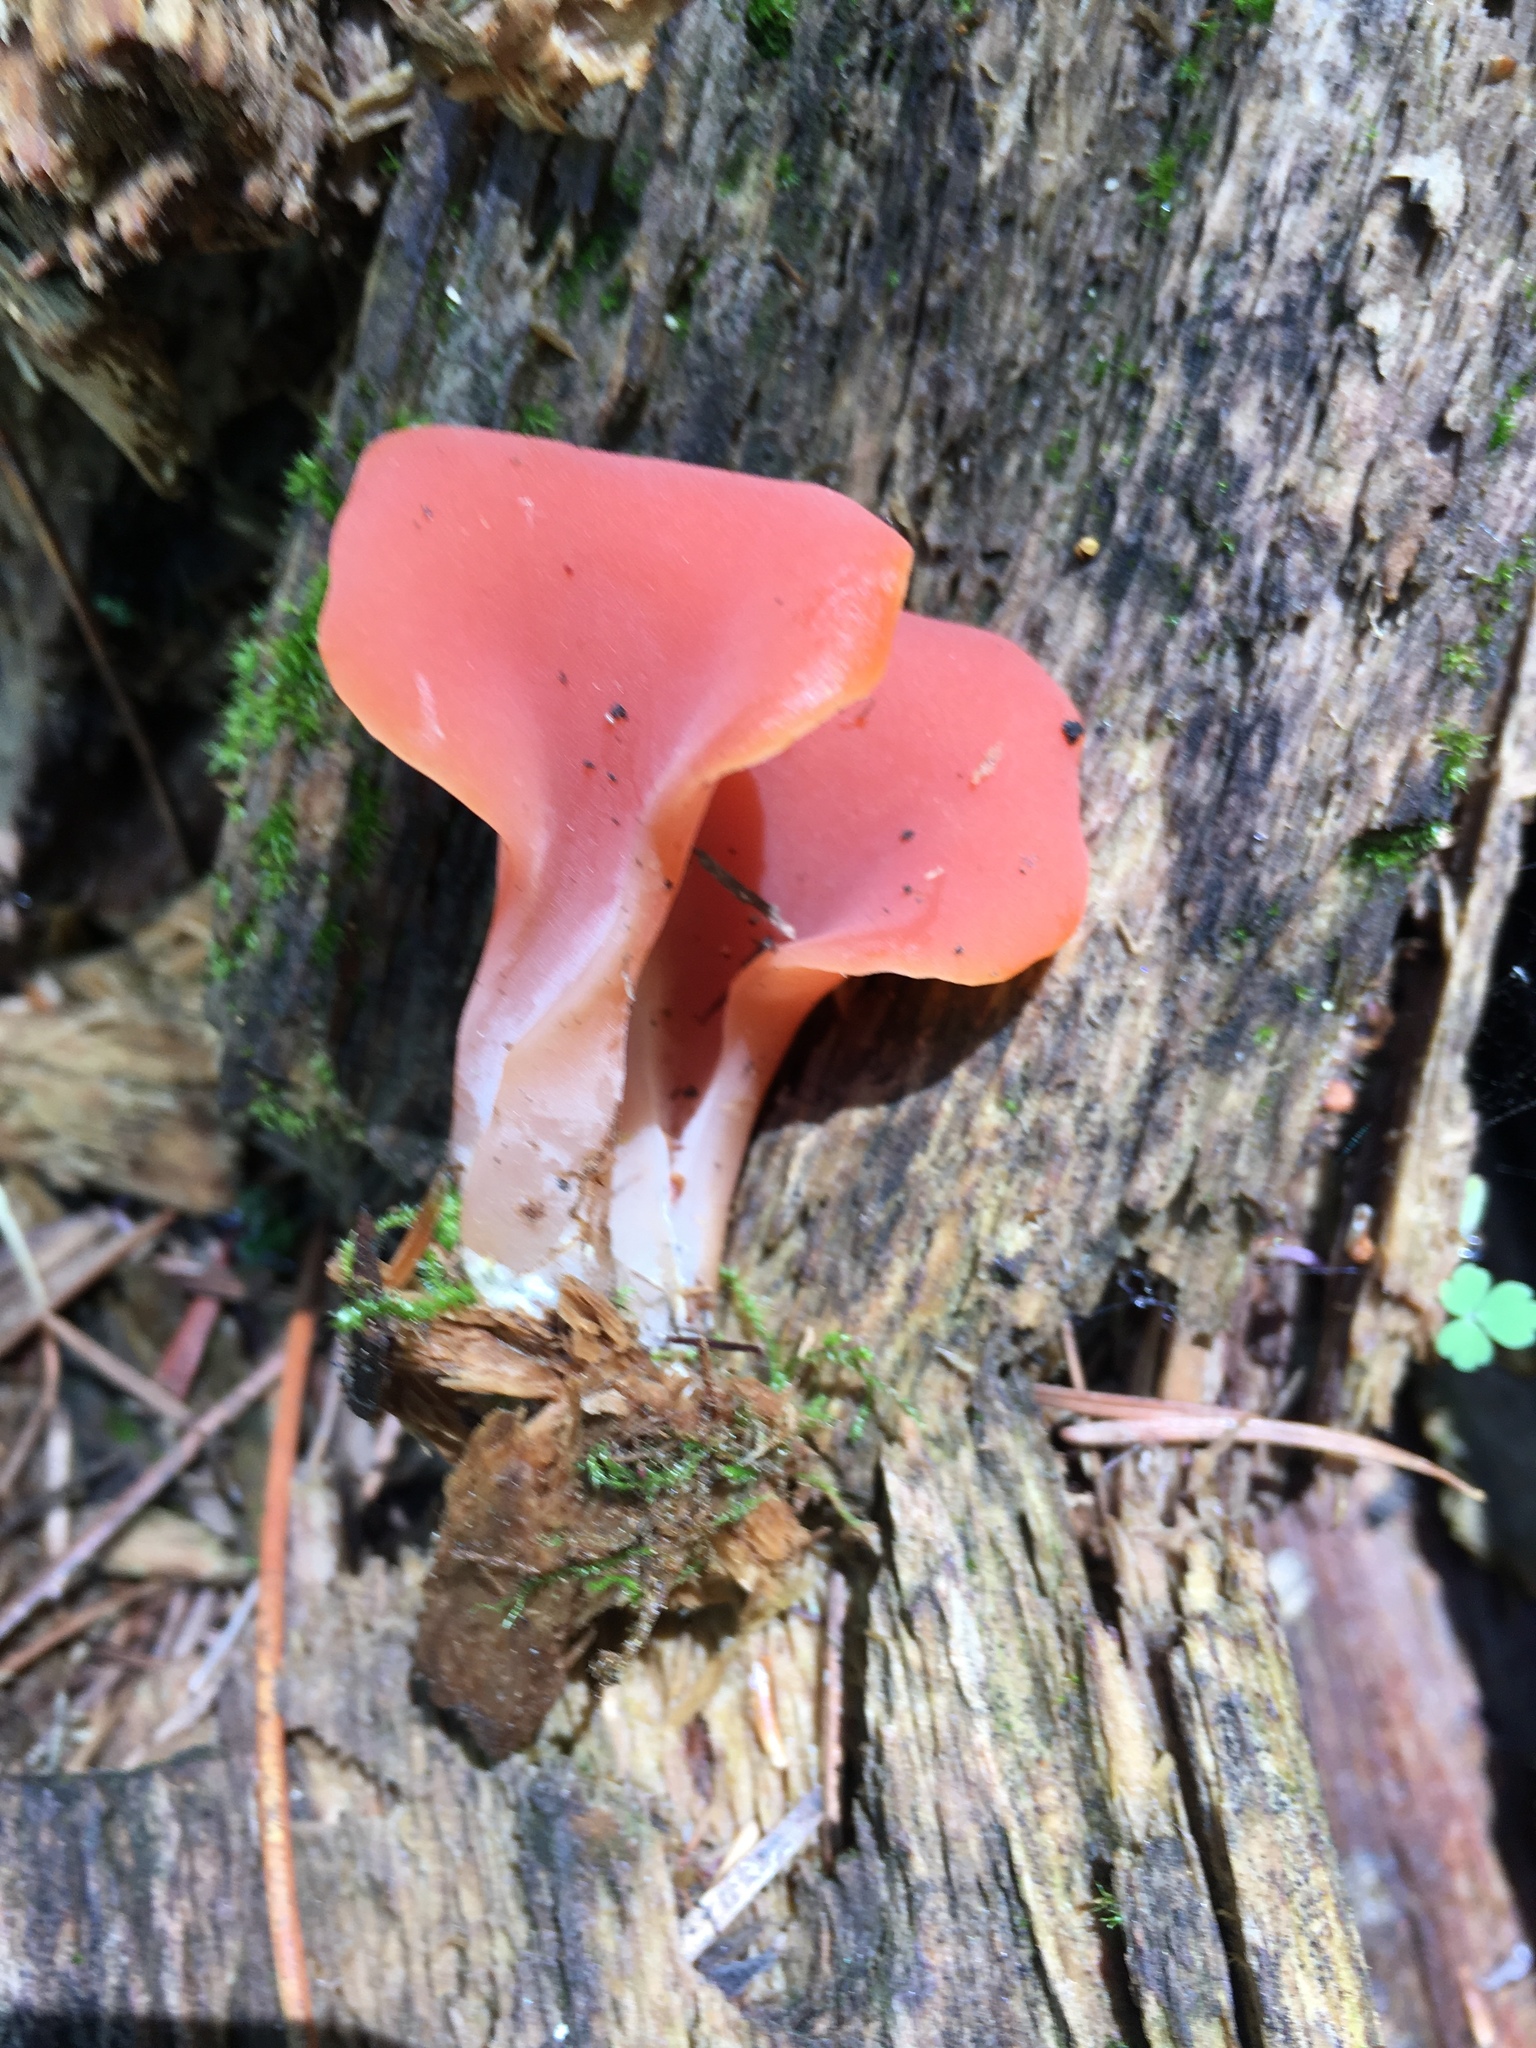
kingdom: Fungi
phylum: Basidiomycota
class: Agaricomycetes
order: Auriculariales
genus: Guepinia
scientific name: Guepinia helvelloides
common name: Salmon salad
